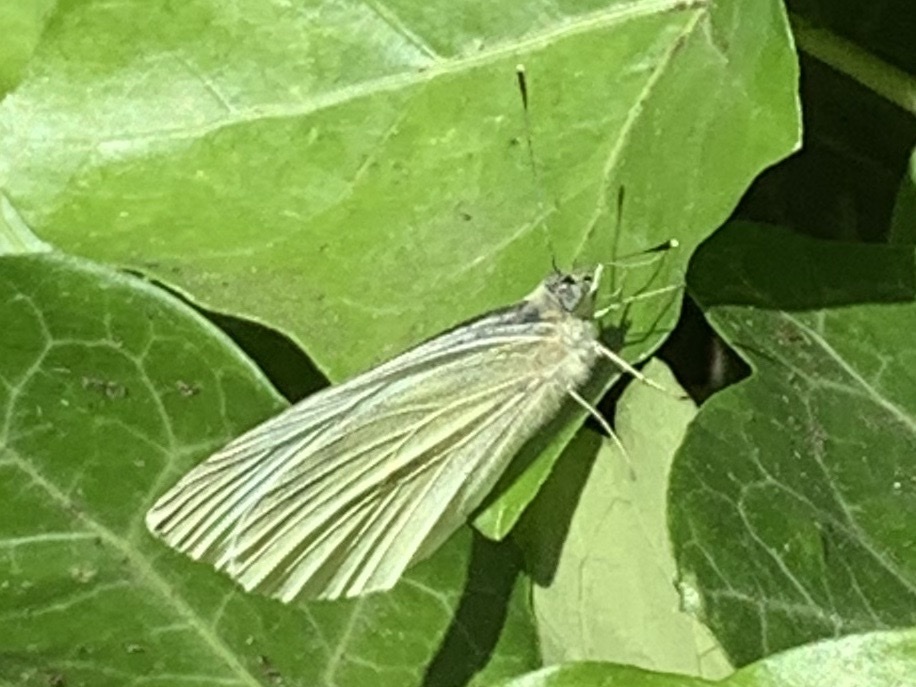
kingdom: Animalia
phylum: Arthropoda
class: Insecta
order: Lepidoptera
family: Pieridae
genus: Pieris
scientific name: Pieris rapae
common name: Small white
